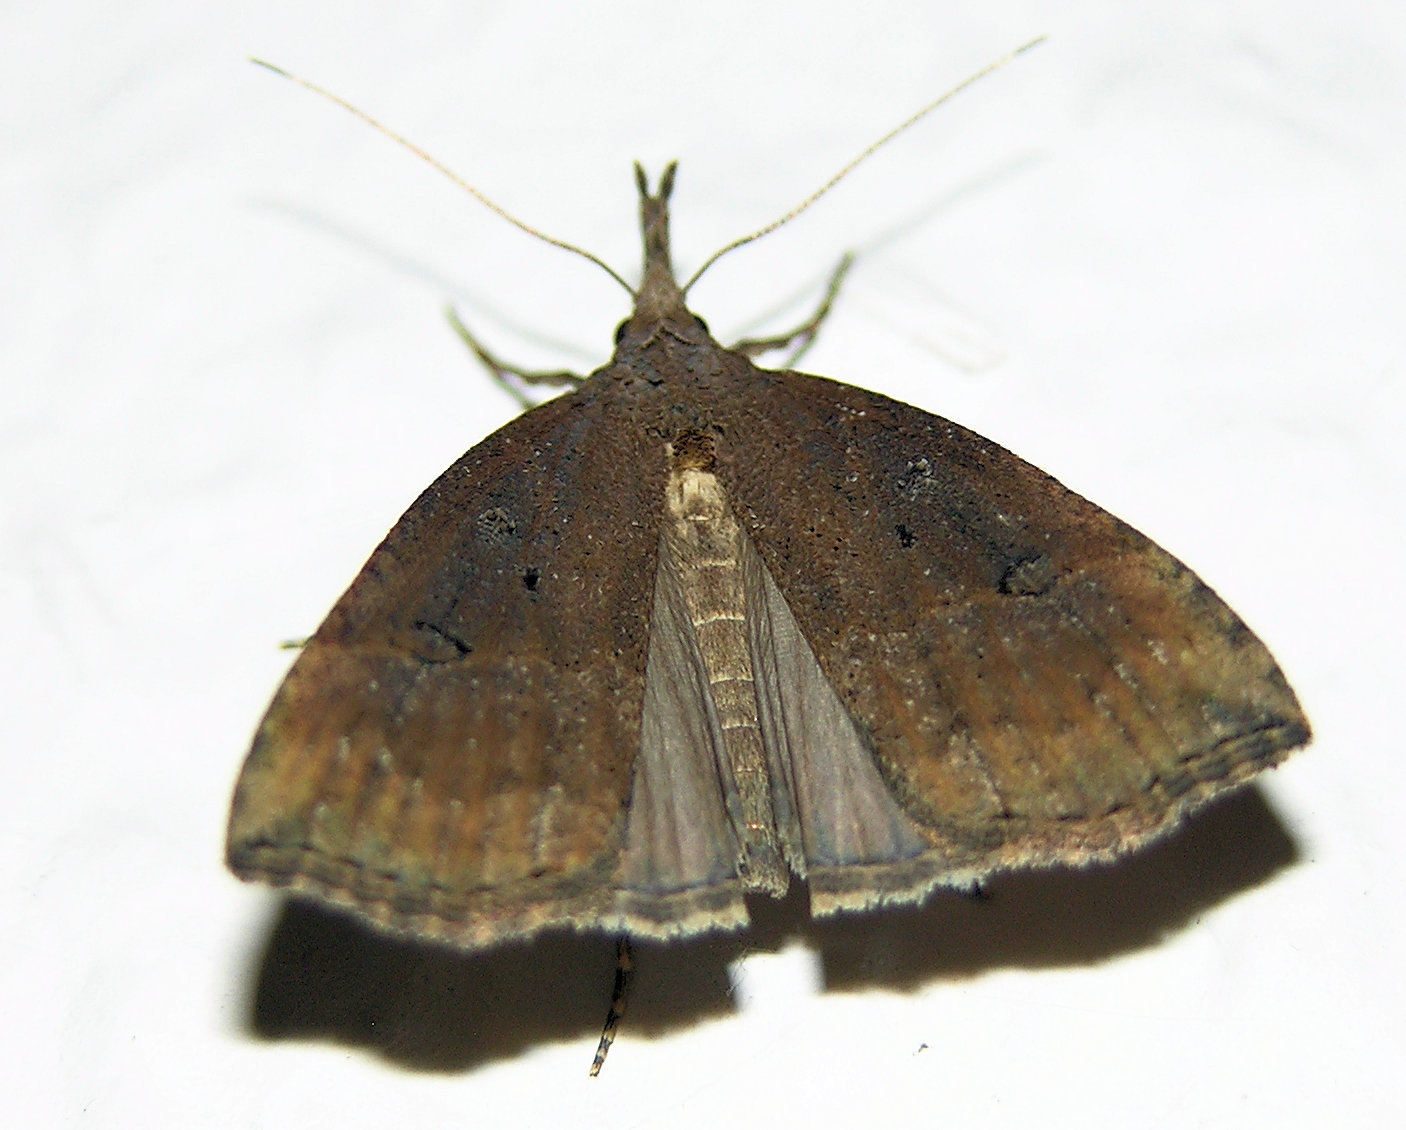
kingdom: Animalia
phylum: Arthropoda
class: Insecta
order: Lepidoptera
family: Erebidae
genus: Hypena
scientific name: Hypena rostralis
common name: Buttoned snout
